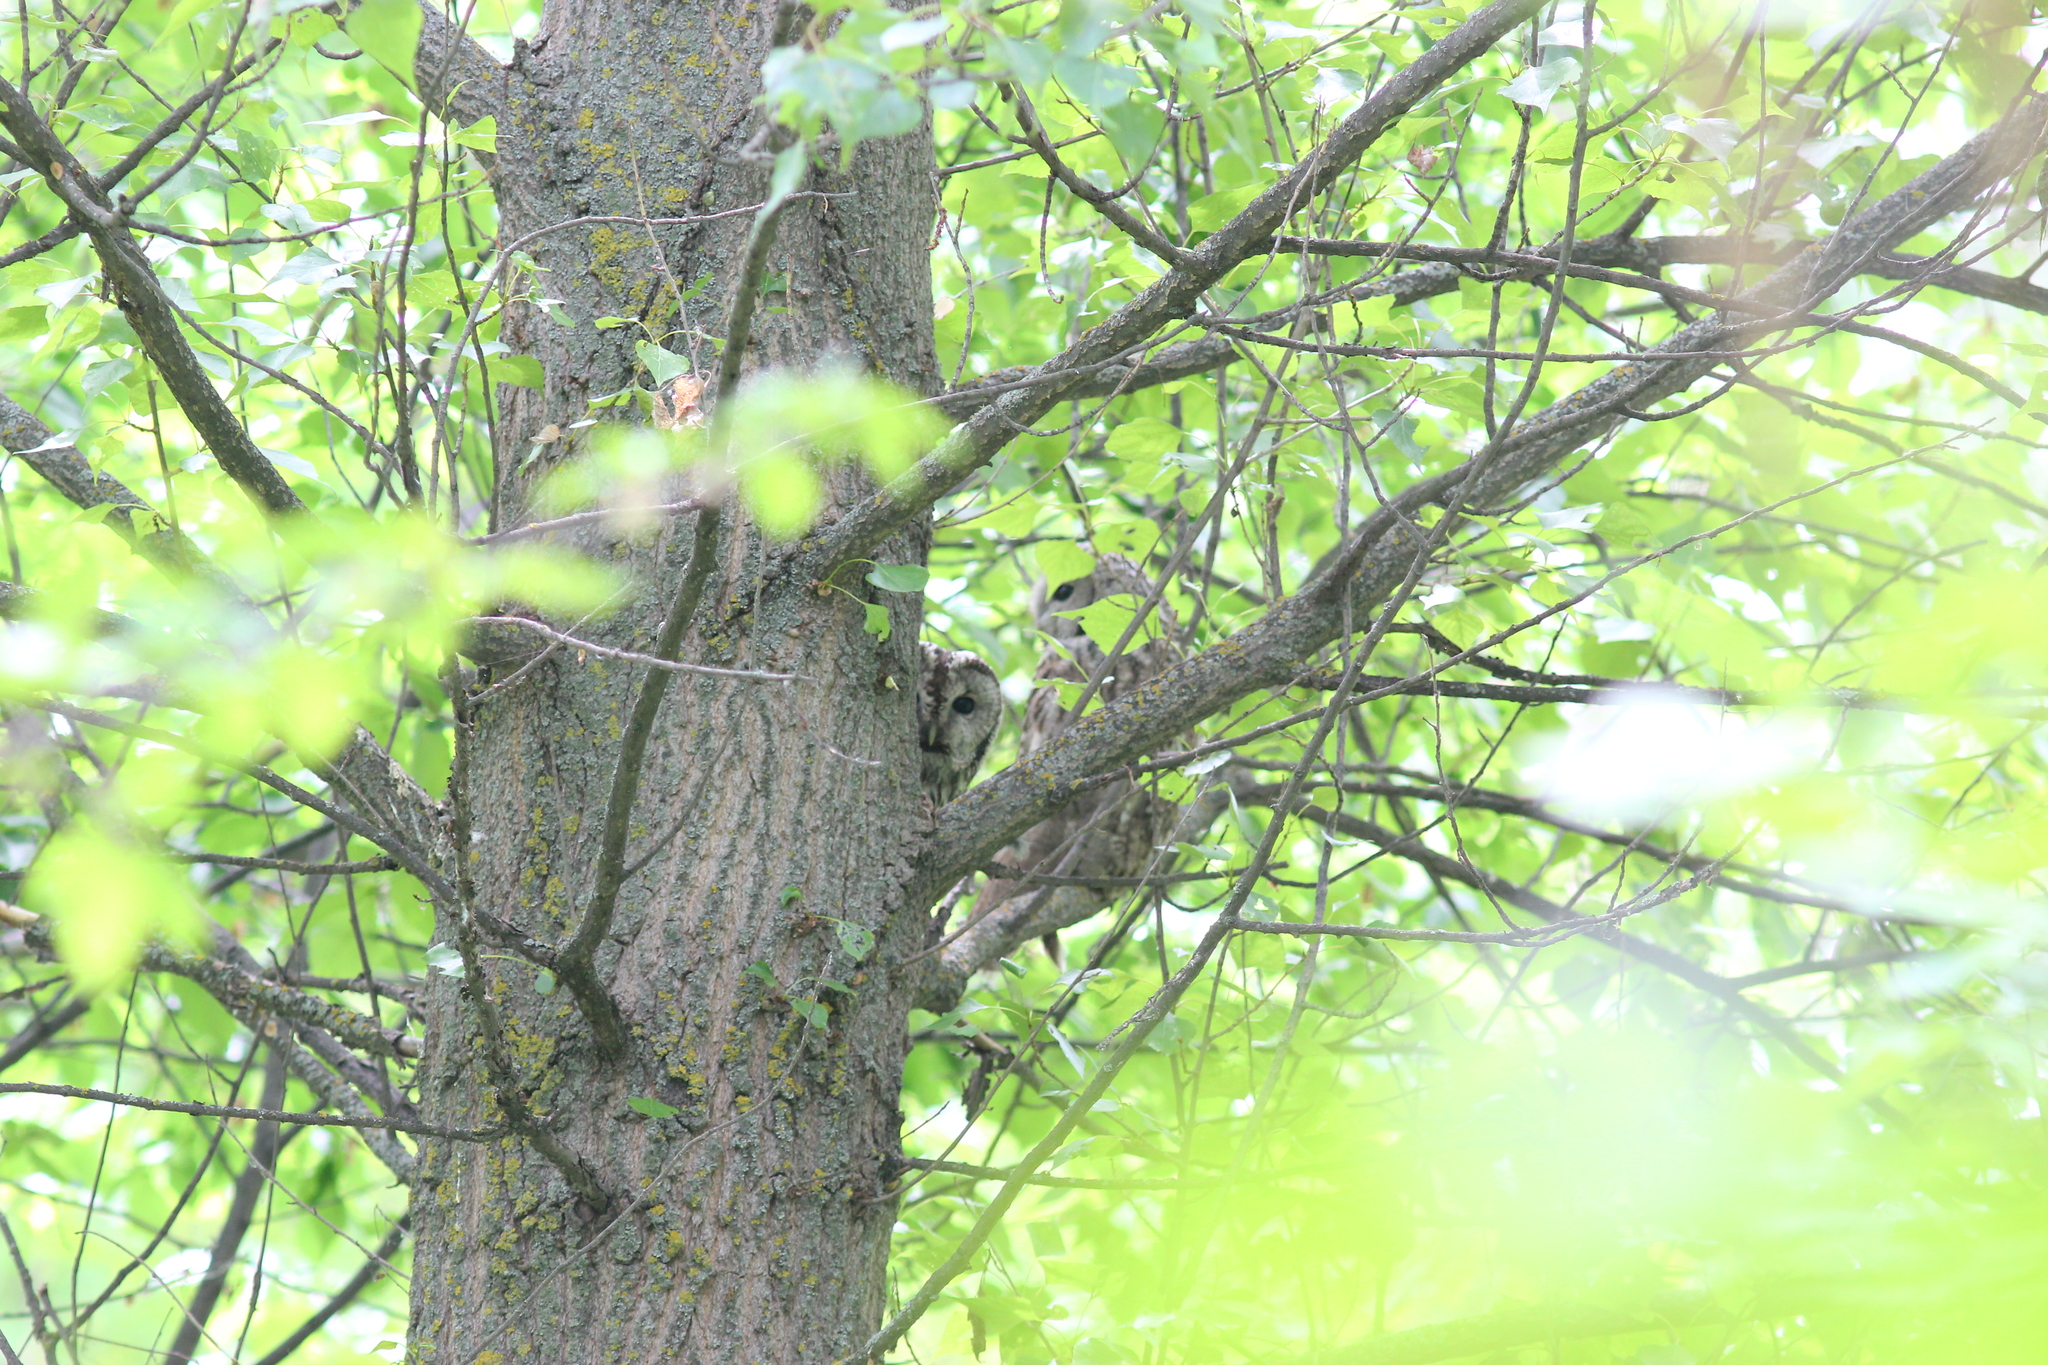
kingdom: Animalia
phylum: Chordata
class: Aves
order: Strigiformes
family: Strigidae
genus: Strix
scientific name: Strix aluco
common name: Tawny owl
